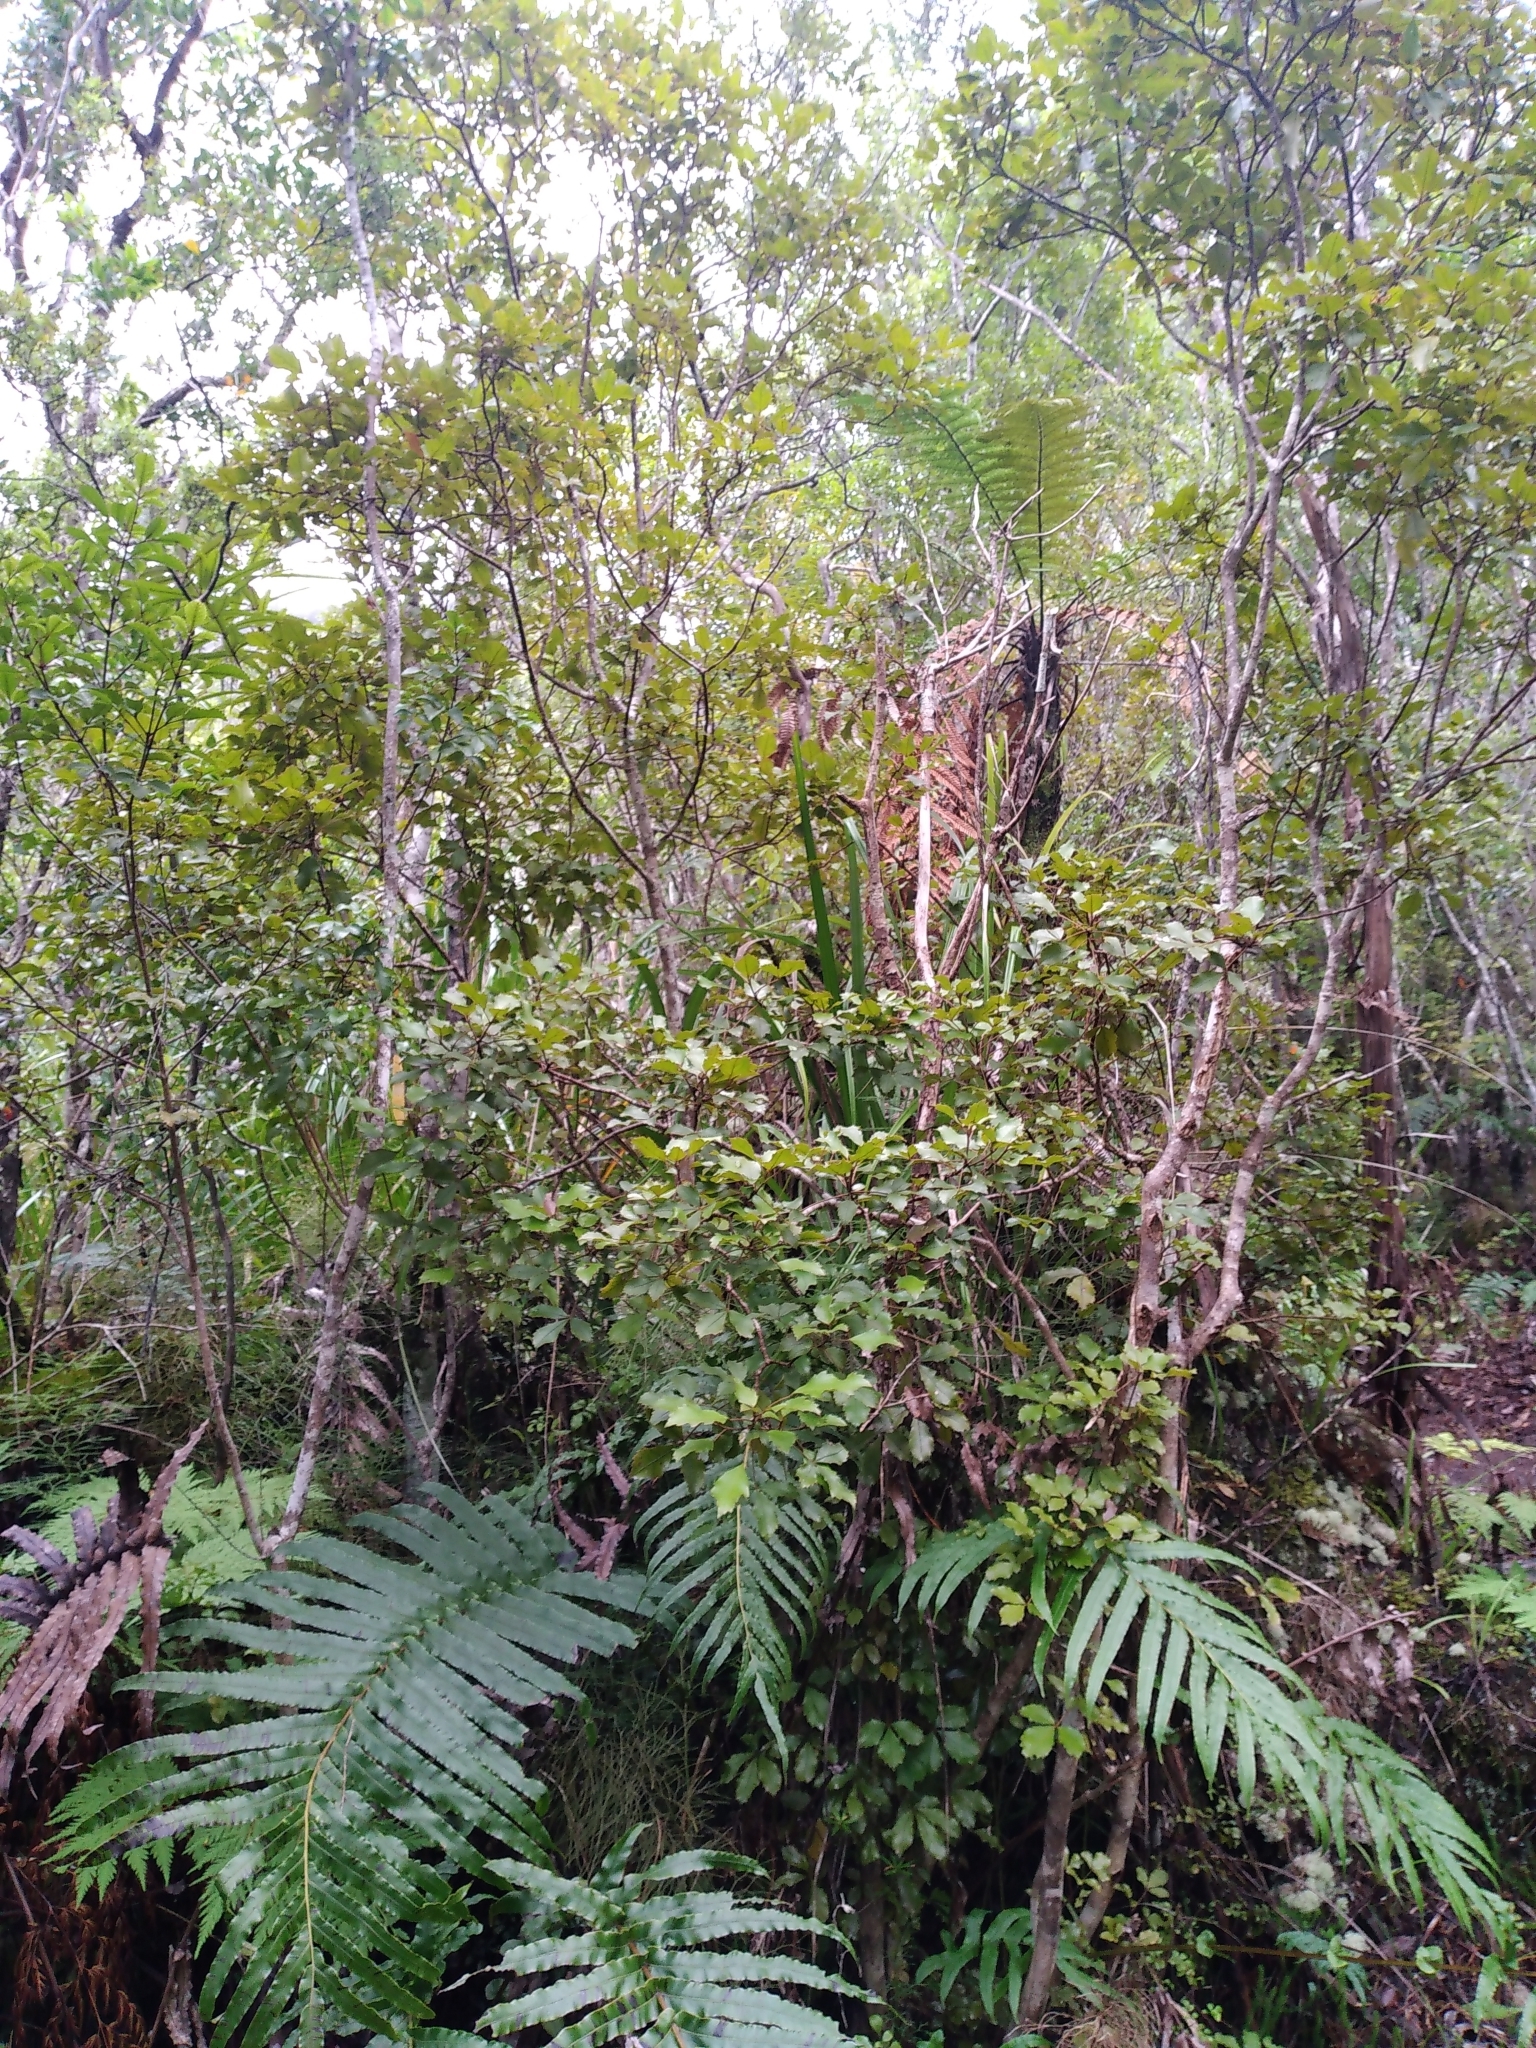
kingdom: Plantae
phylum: Tracheophyta
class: Magnoliopsida
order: Apiales
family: Araliaceae
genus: Pseudopanax
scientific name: Pseudopanax discolor
